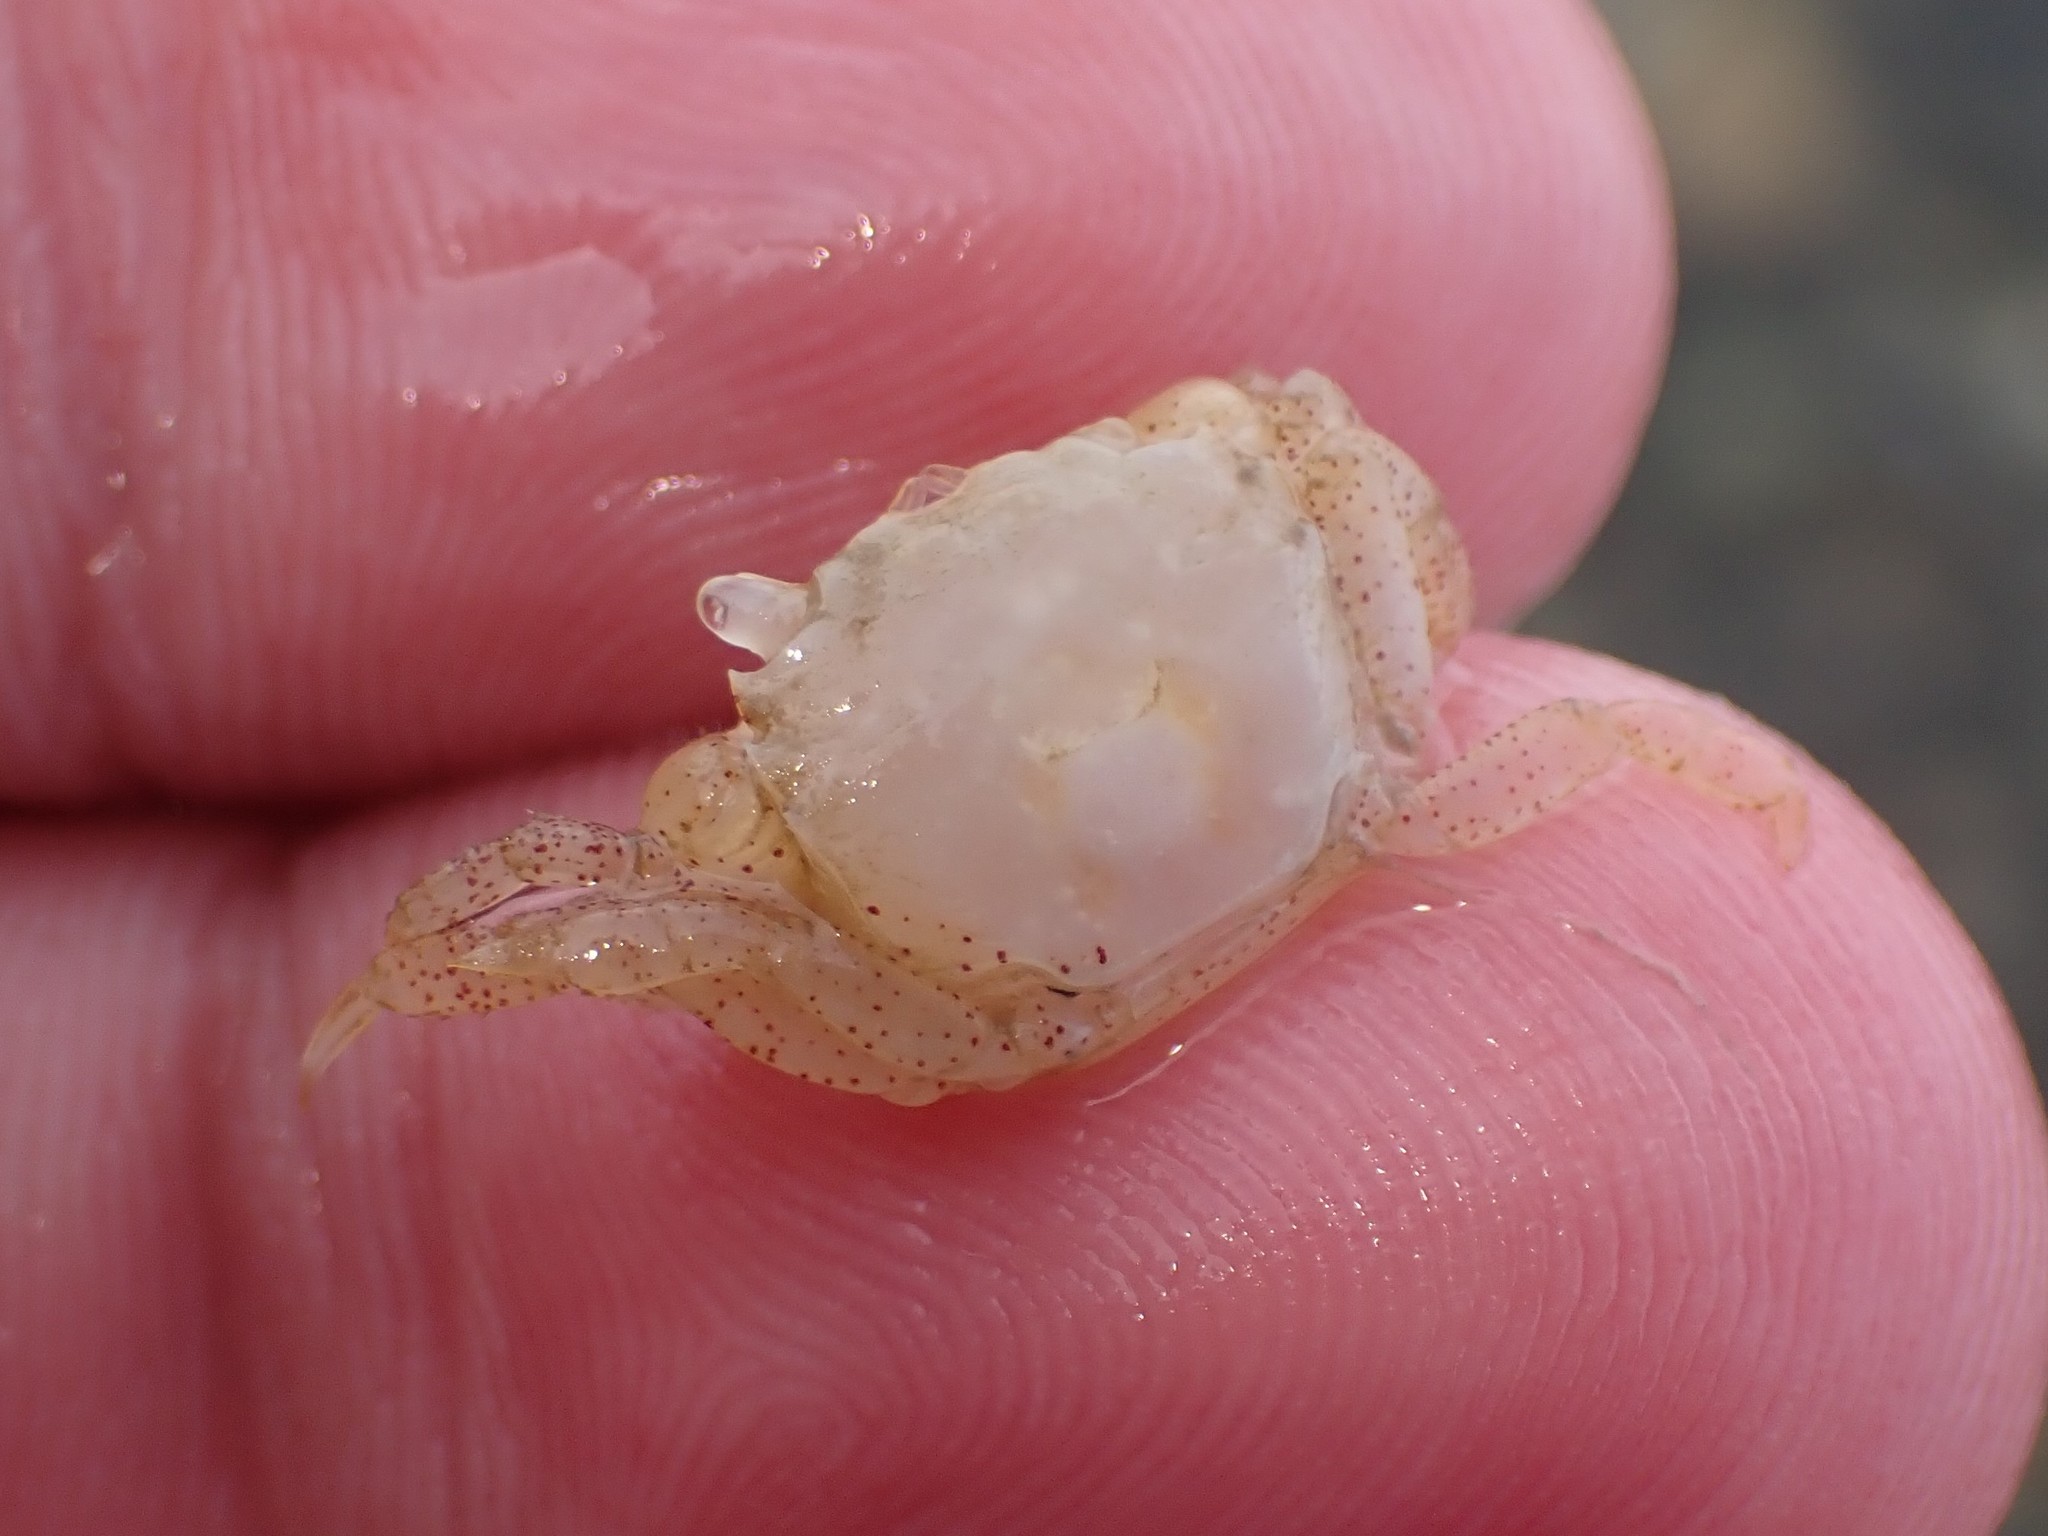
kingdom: Animalia
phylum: Arthropoda
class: Malacostraca
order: Decapoda
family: Varunidae
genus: Hemigrapsus
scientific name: Hemigrapsus oregonensis
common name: Yellow shore crab
